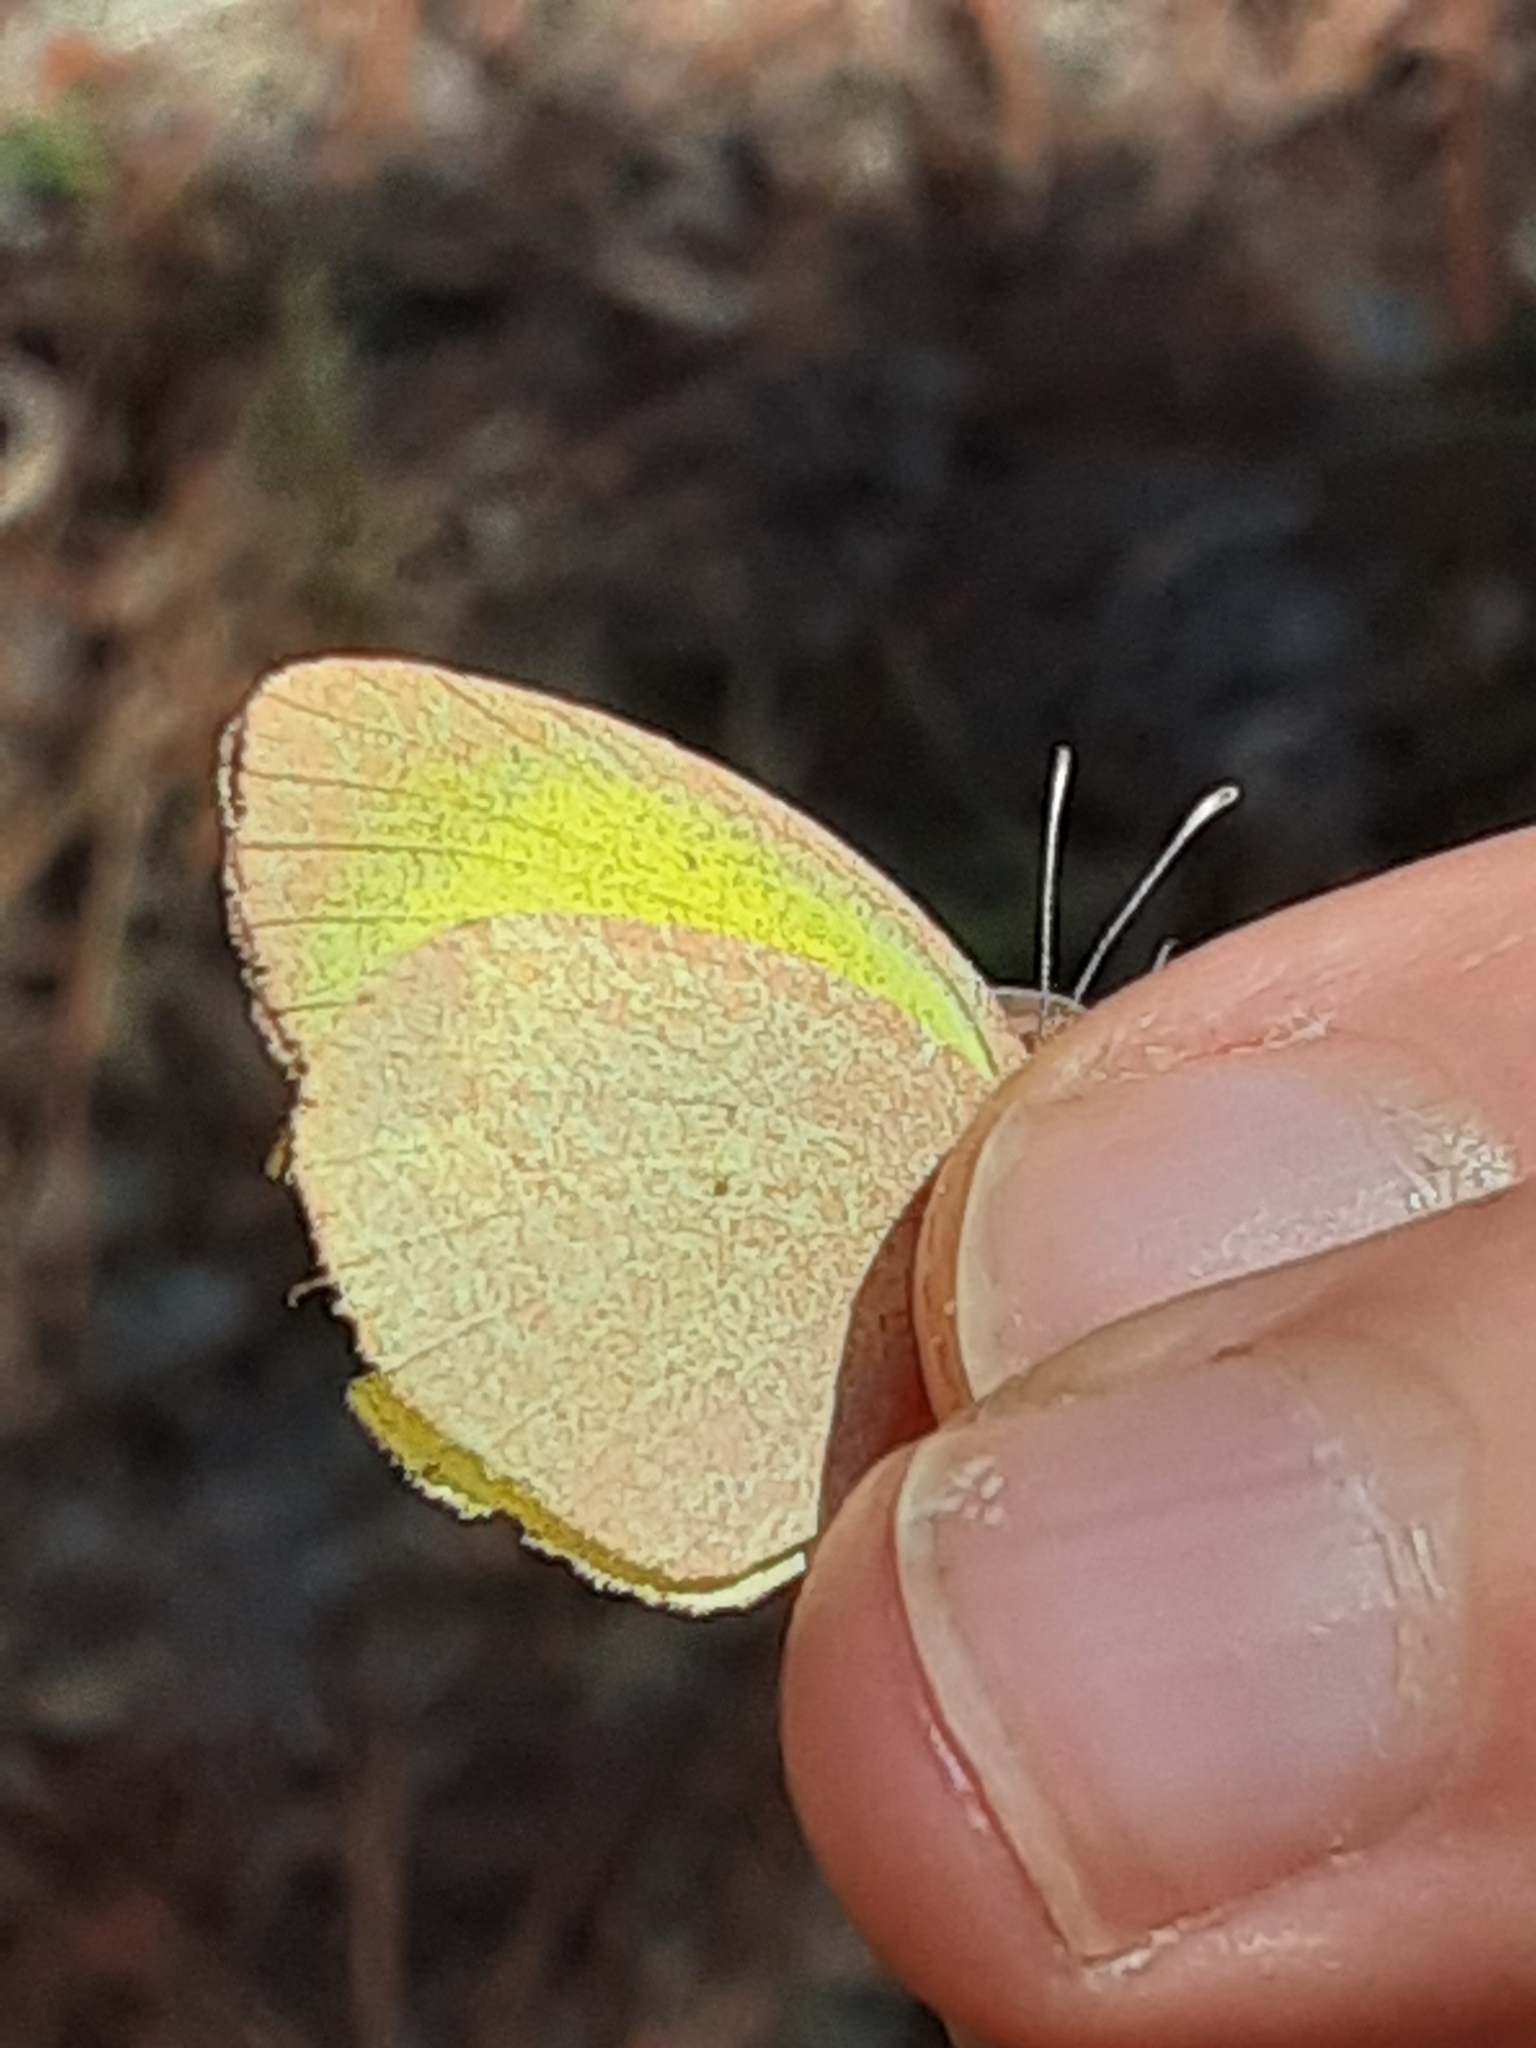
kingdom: Animalia
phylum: Arthropoda
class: Insecta
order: Lepidoptera
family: Pieridae
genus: Eurema
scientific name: Eurema daira
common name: Barred sulphur
